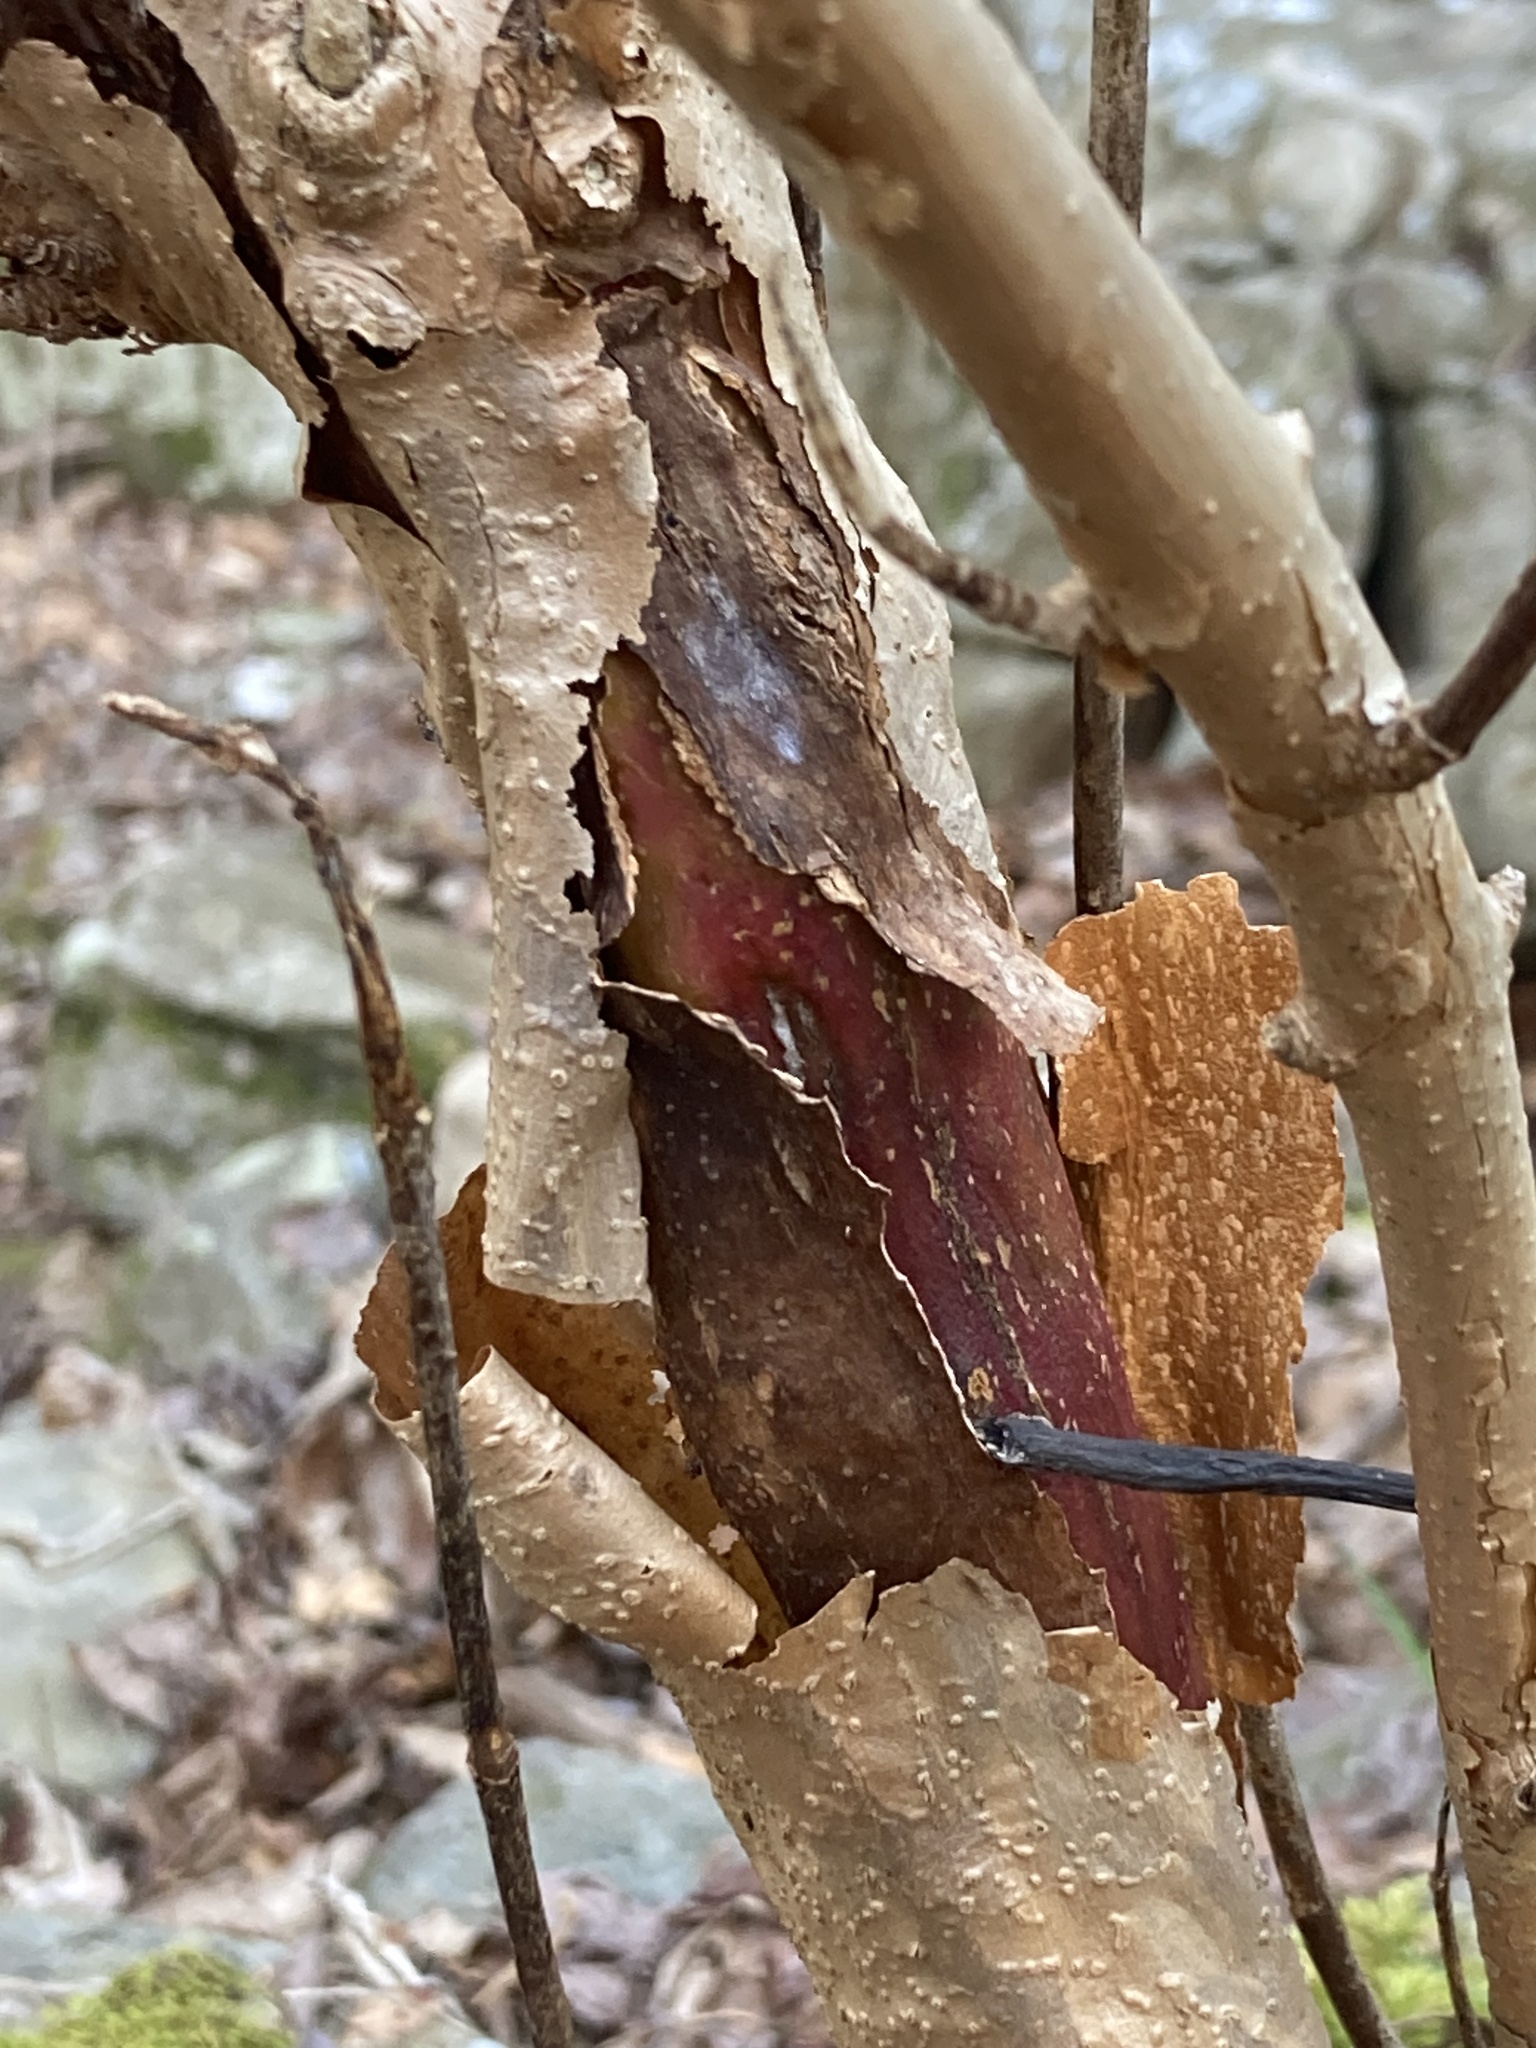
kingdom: Plantae
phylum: Tracheophyta
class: Magnoliopsida
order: Cornales
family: Hydrangeaceae
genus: Hydrangea
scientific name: Hydrangea quercifolia
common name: Oak-leaf hydrangea
